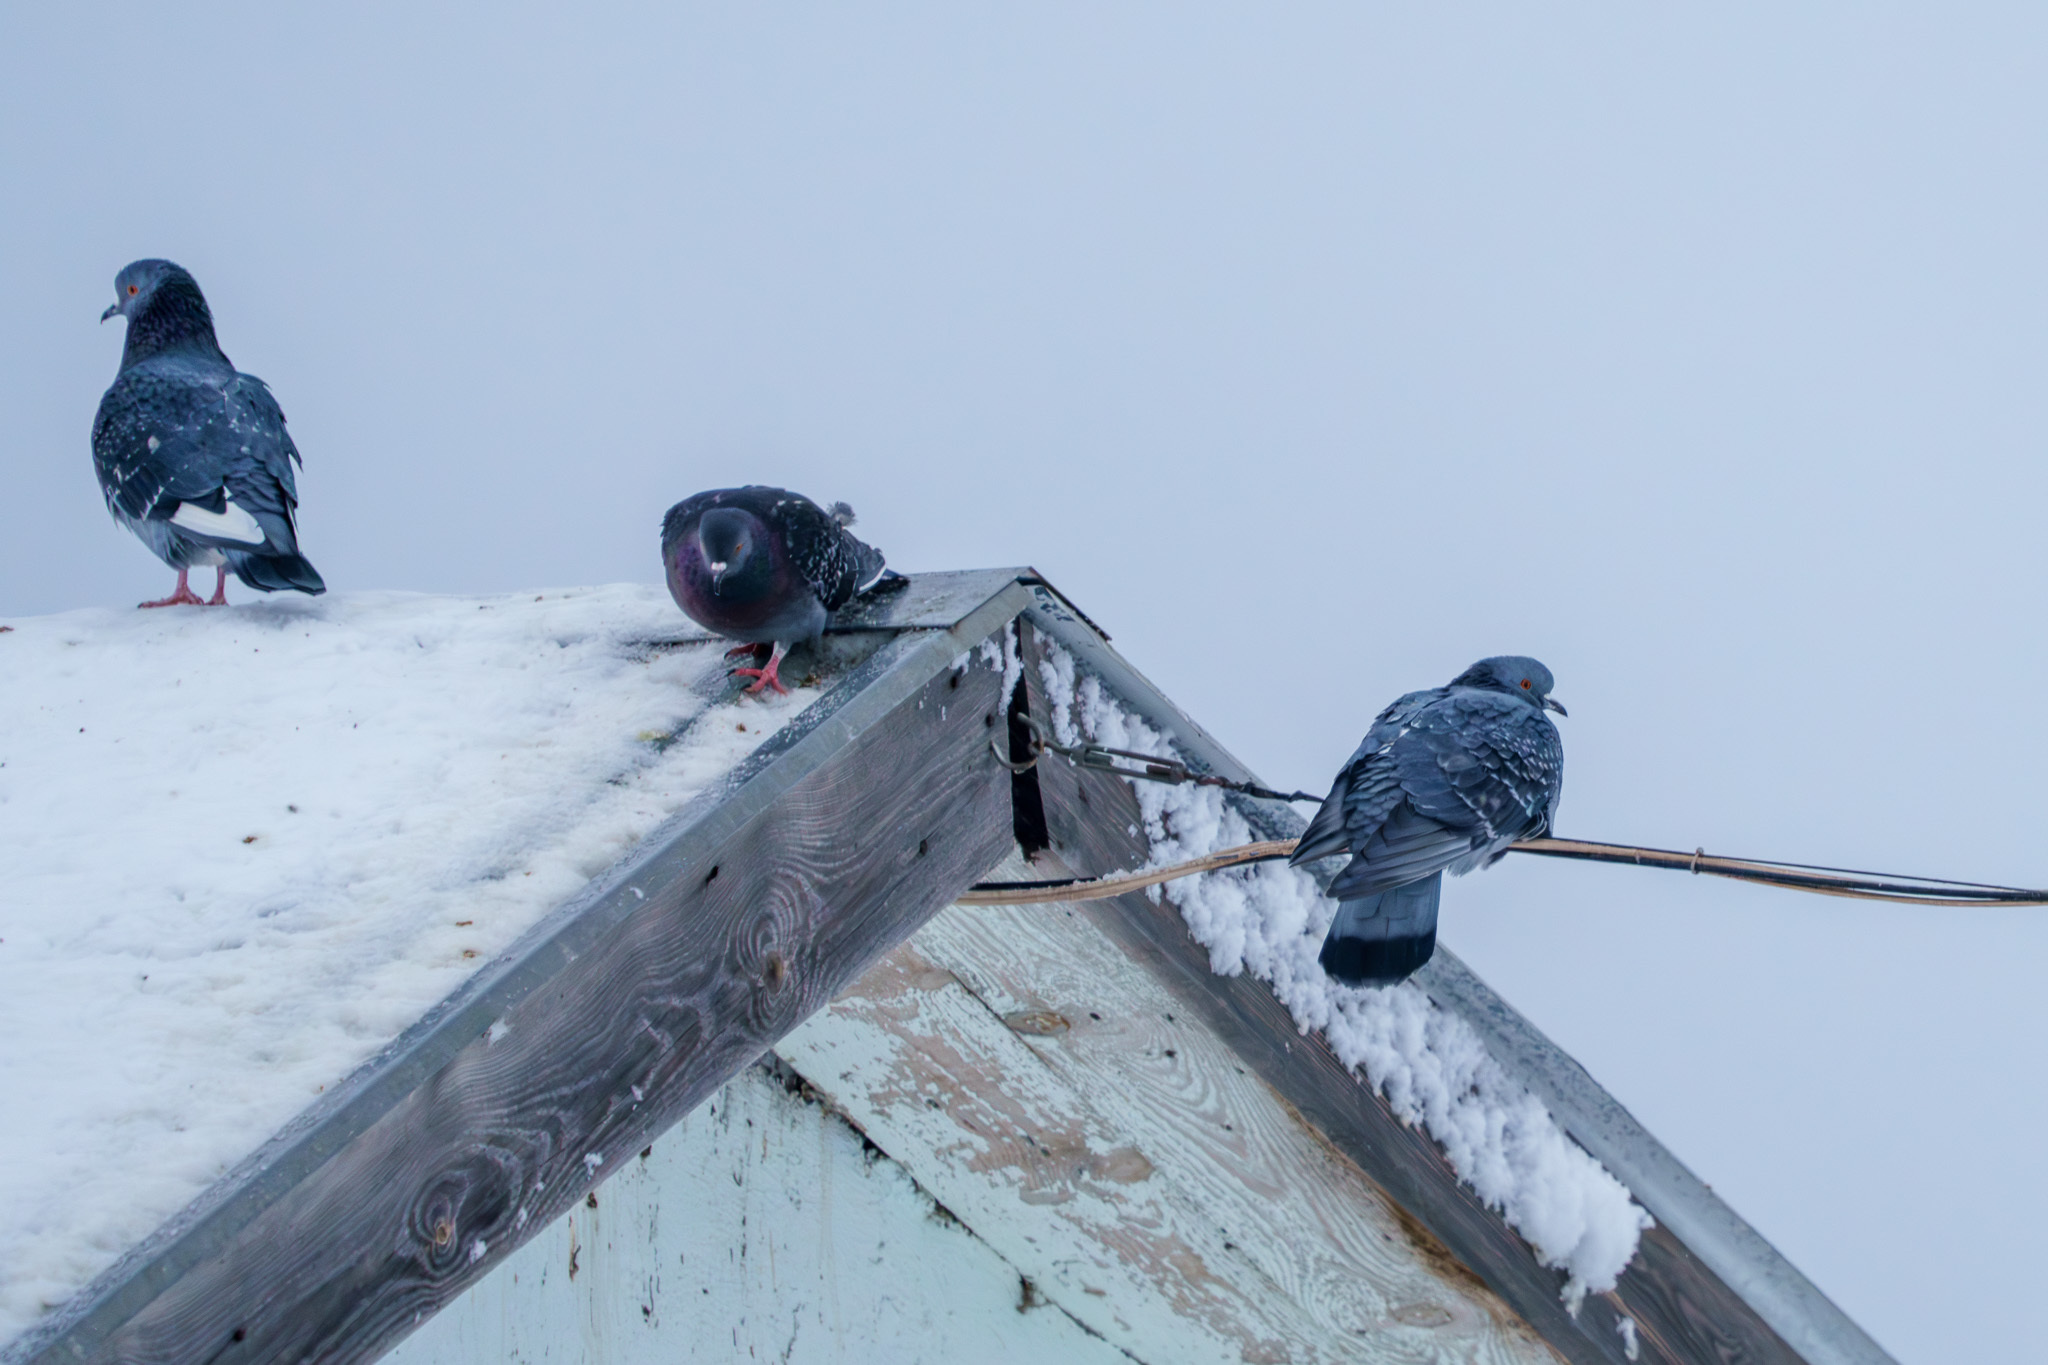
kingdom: Animalia
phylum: Chordata
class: Aves
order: Columbiformes
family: Columbidae
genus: Columba
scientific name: Columba livia
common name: Rock pigeon
